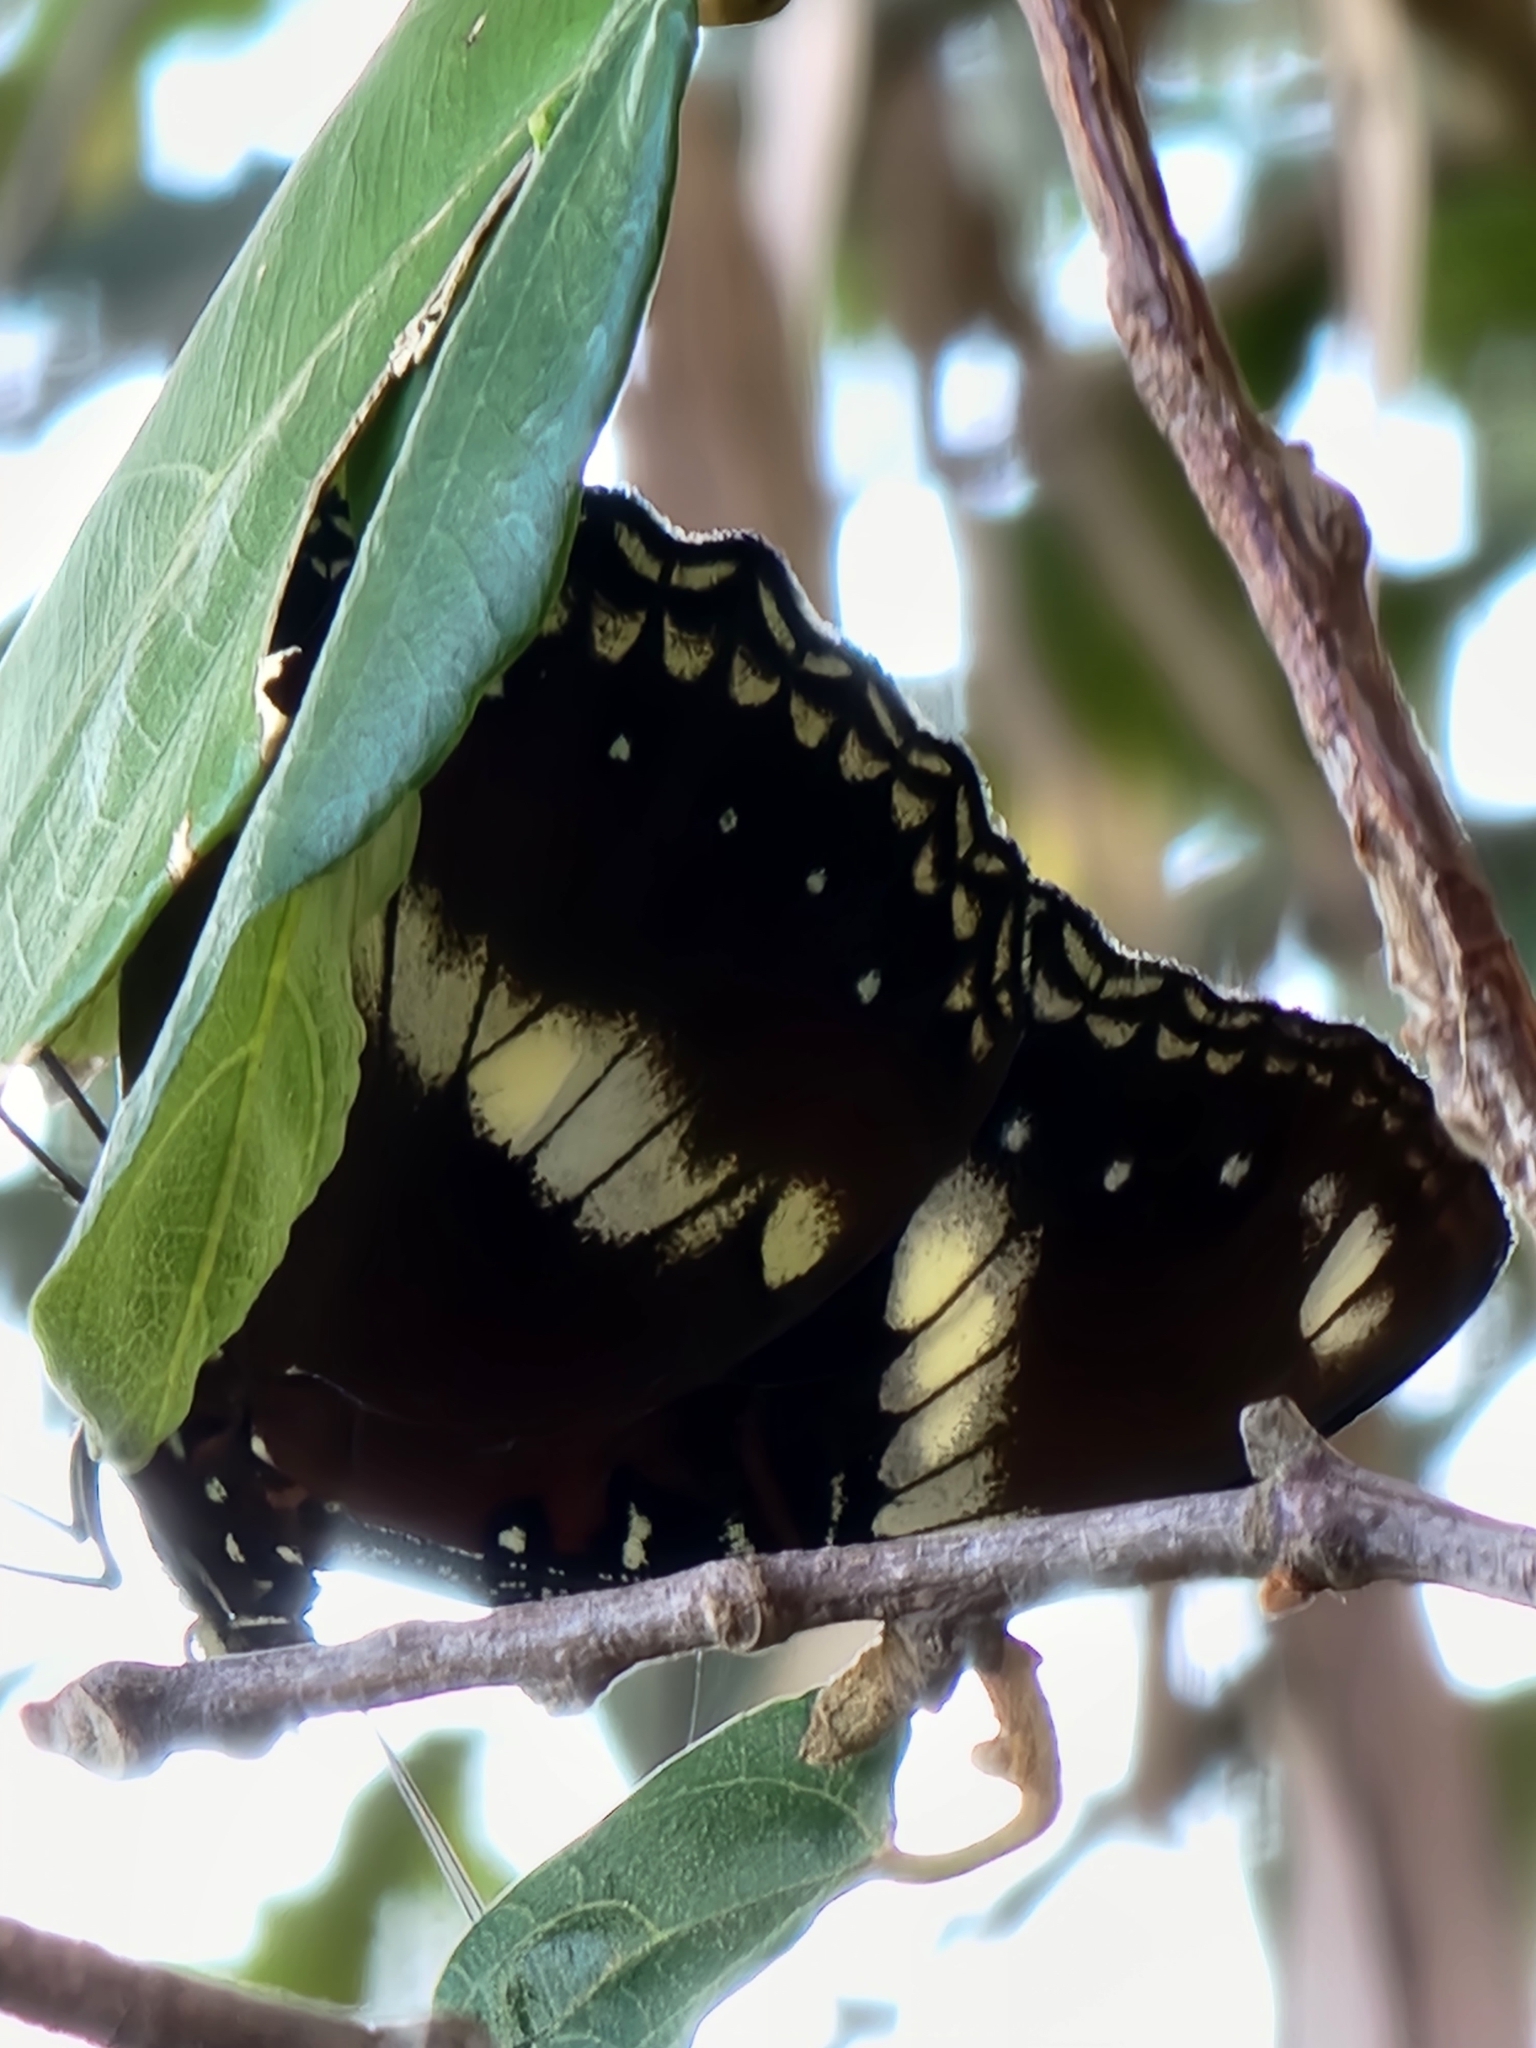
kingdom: Animalia
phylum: Arthropoda
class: Insecta
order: Lepidoptera
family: Nymphalidae
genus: Hypolimnas
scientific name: Hypolimnas bolina
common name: Great eggfly
